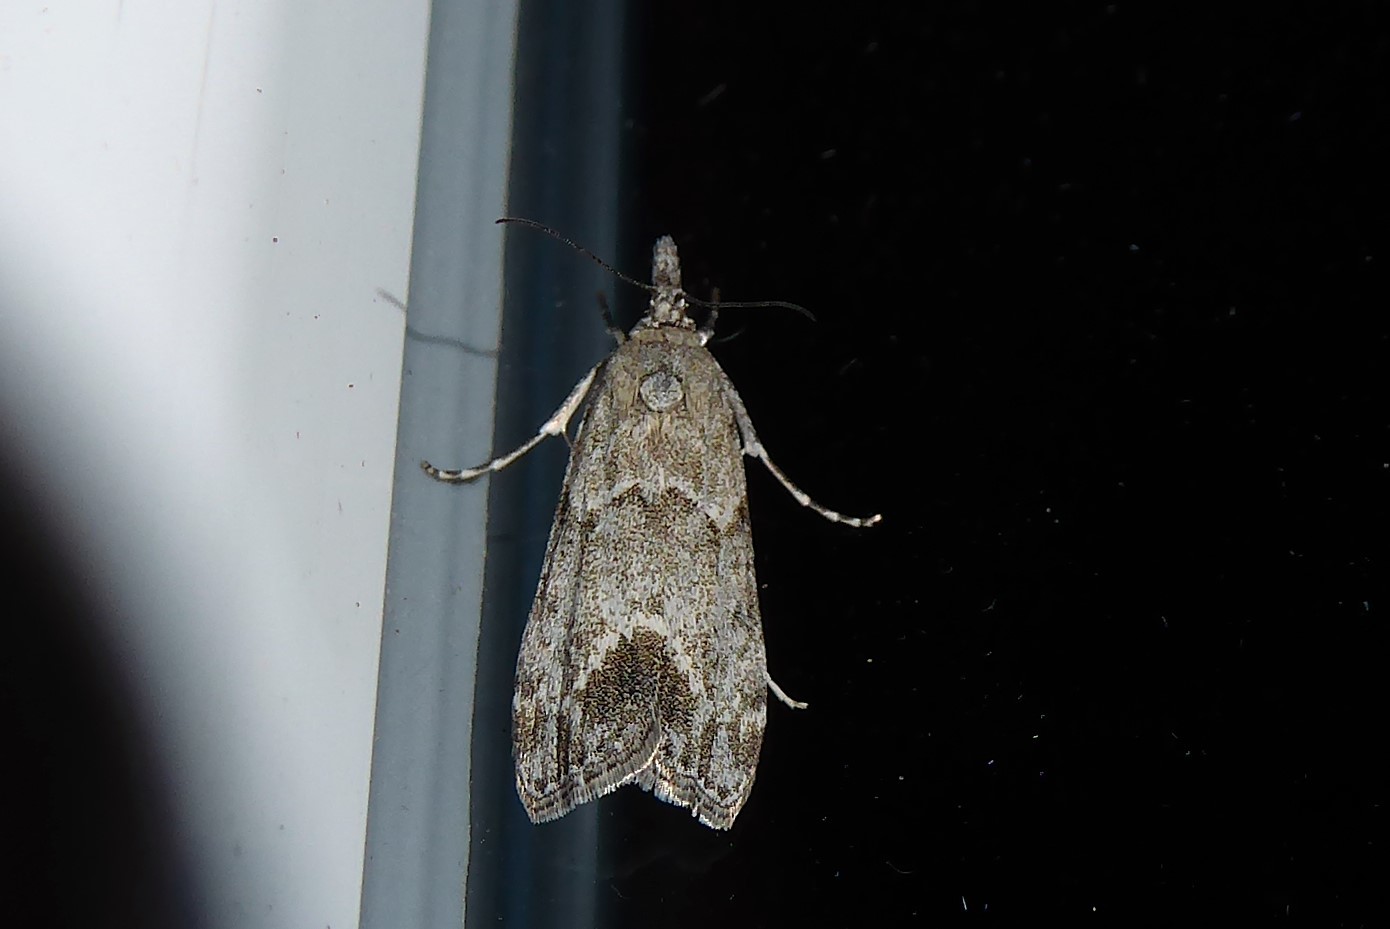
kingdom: Animalia
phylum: Arthropoda
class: Insecta
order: Lepidoptera
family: Crambidae
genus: Eudonia
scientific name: Eudonia rakaiensis
